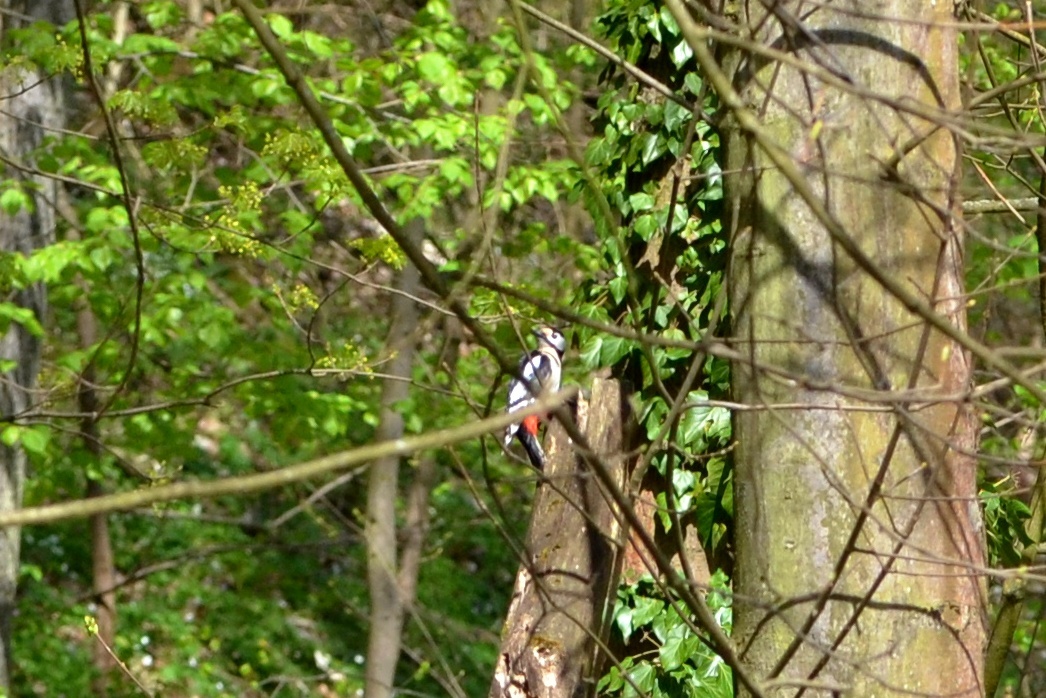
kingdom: Animalia
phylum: Chordata
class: Aves
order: Piciformes
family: Picidae
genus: Dendrocopos
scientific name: Dendrocopos major
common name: Great spotted woodpecker
